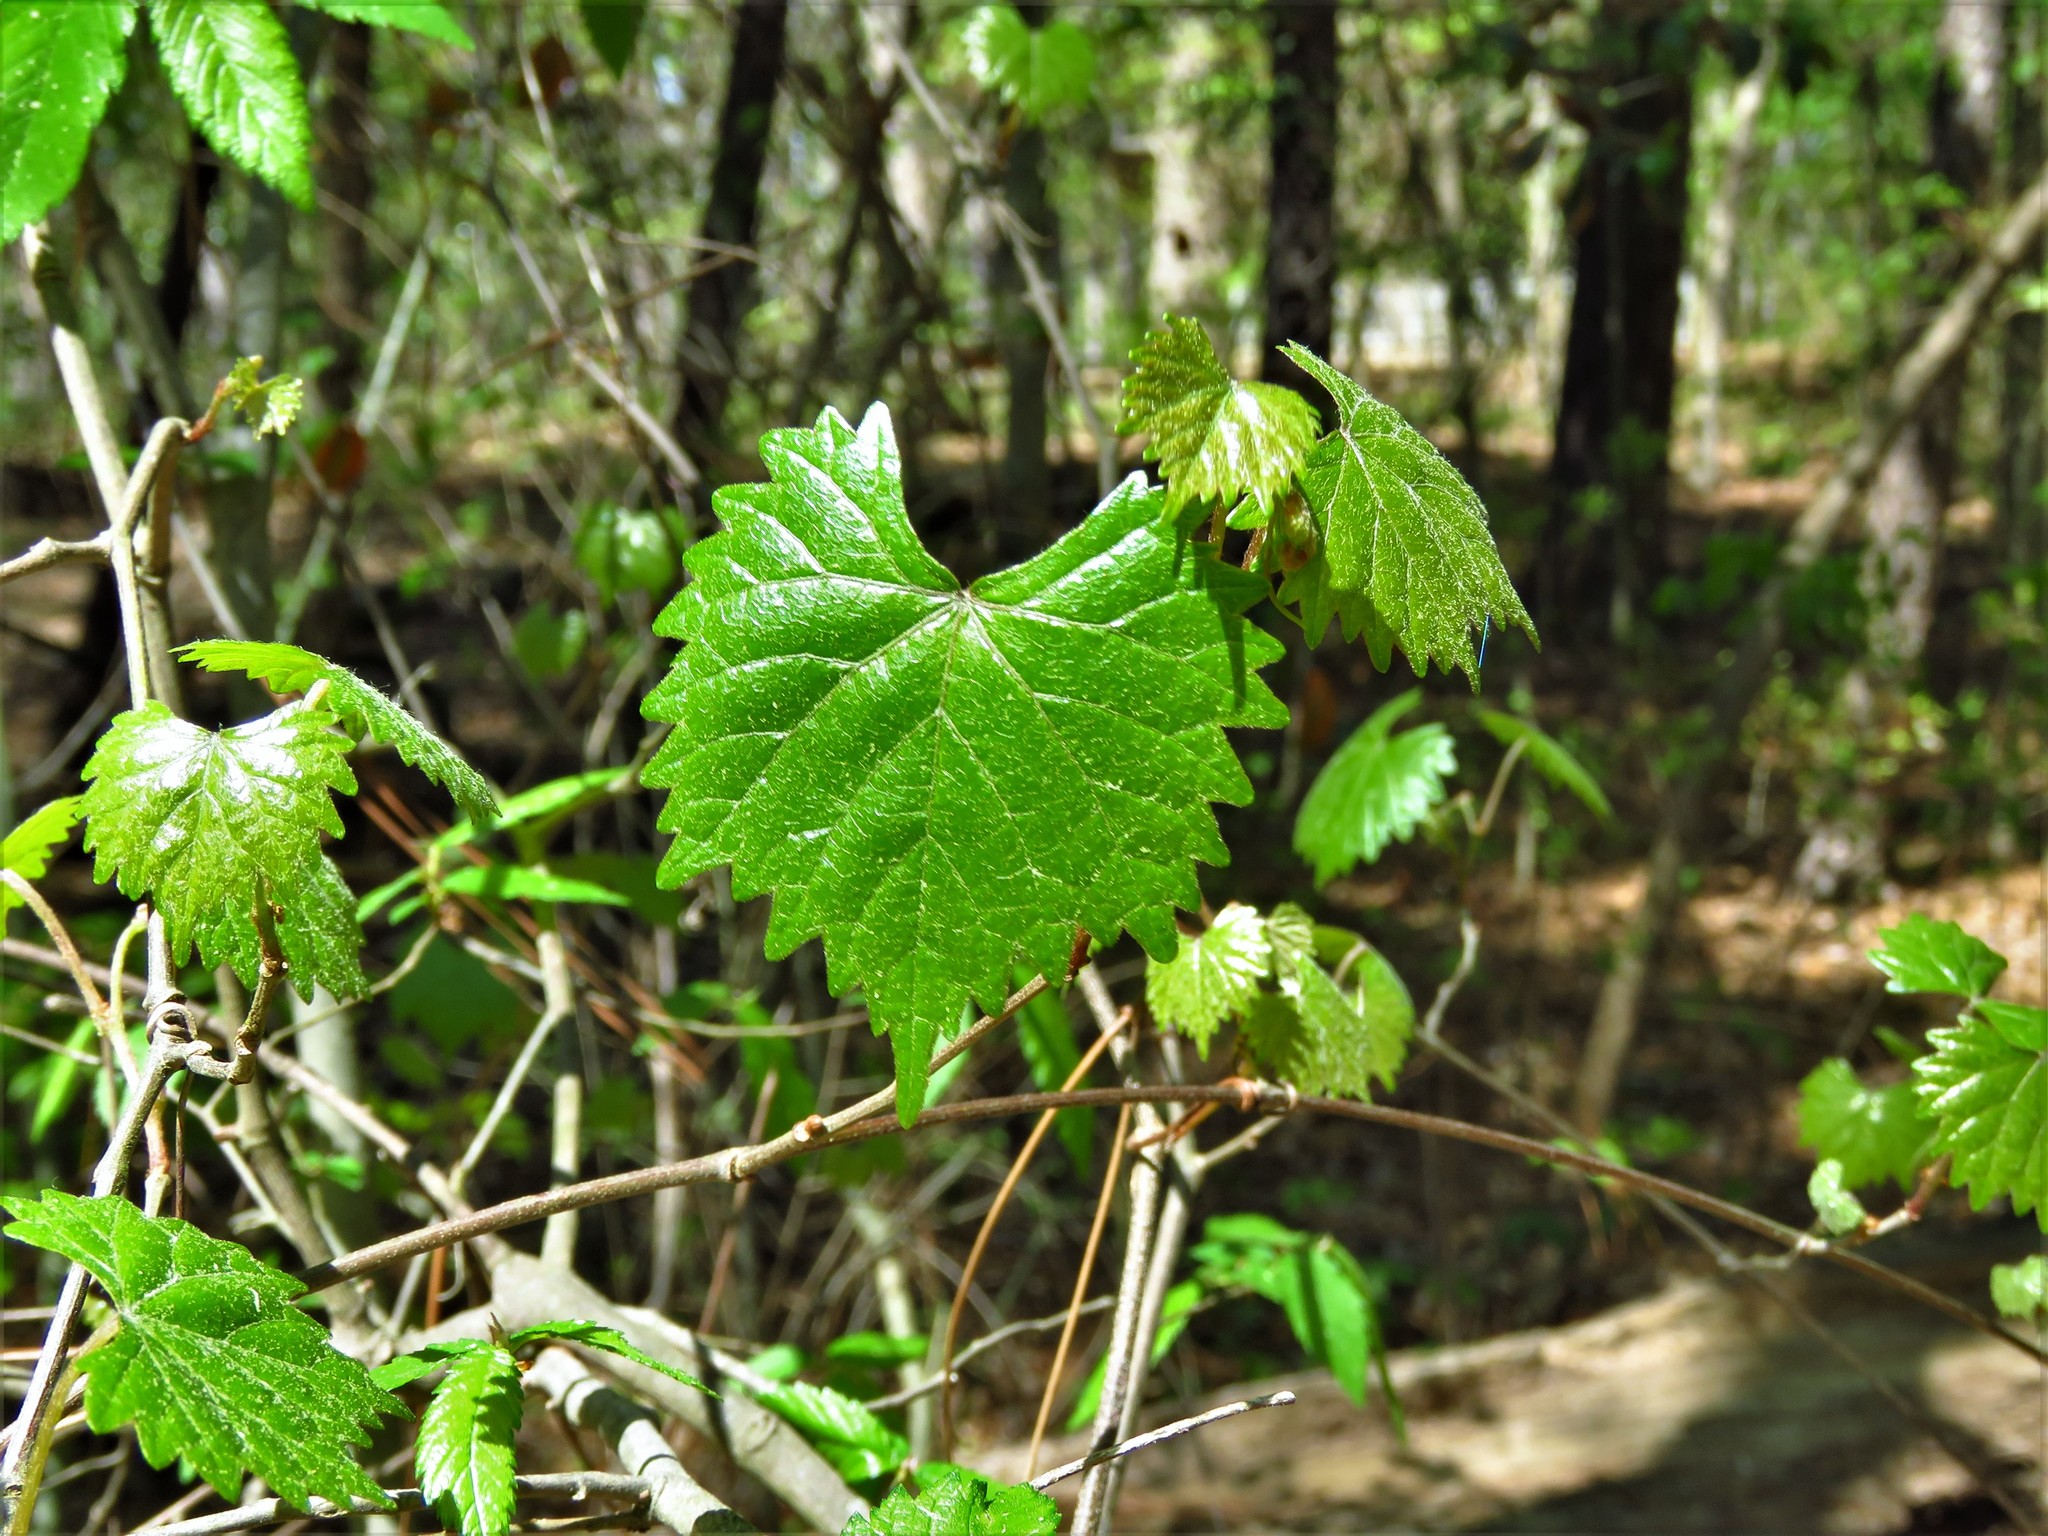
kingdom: Plantae
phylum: Tracheophyta
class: Magnoliopsida
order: Vitales
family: Vitaceae
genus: Vitis
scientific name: Vitis rotundifolia
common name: Muscadine grape
